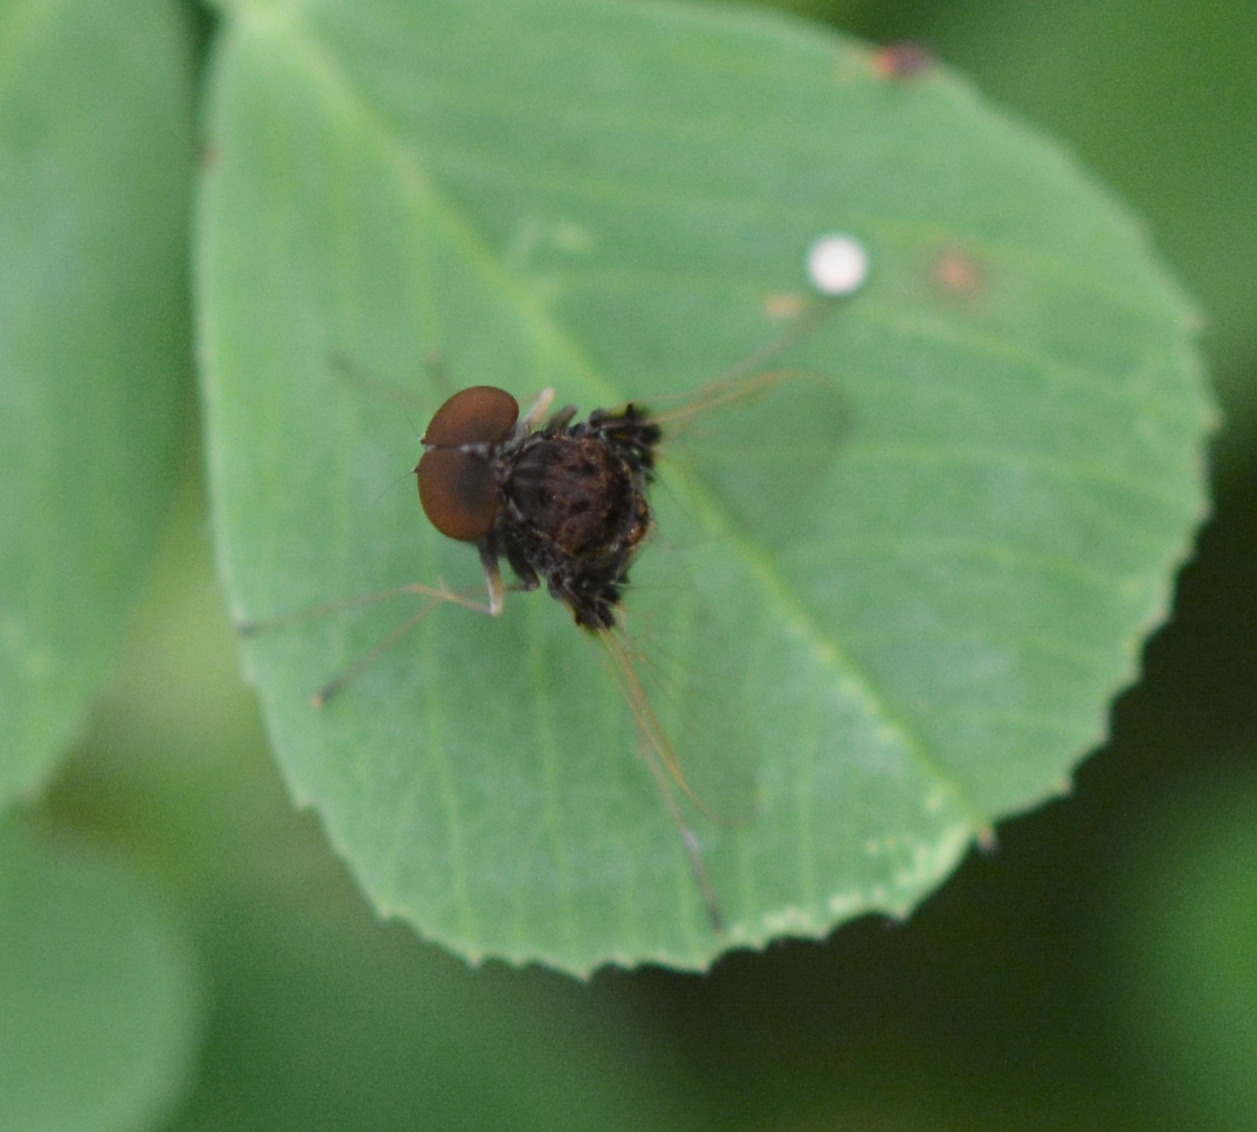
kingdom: Animalia
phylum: Arthropoda
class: Insecta
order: Diptera
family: Rhagionidae
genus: Chrysopilus
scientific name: Chrysopilus basilaris
